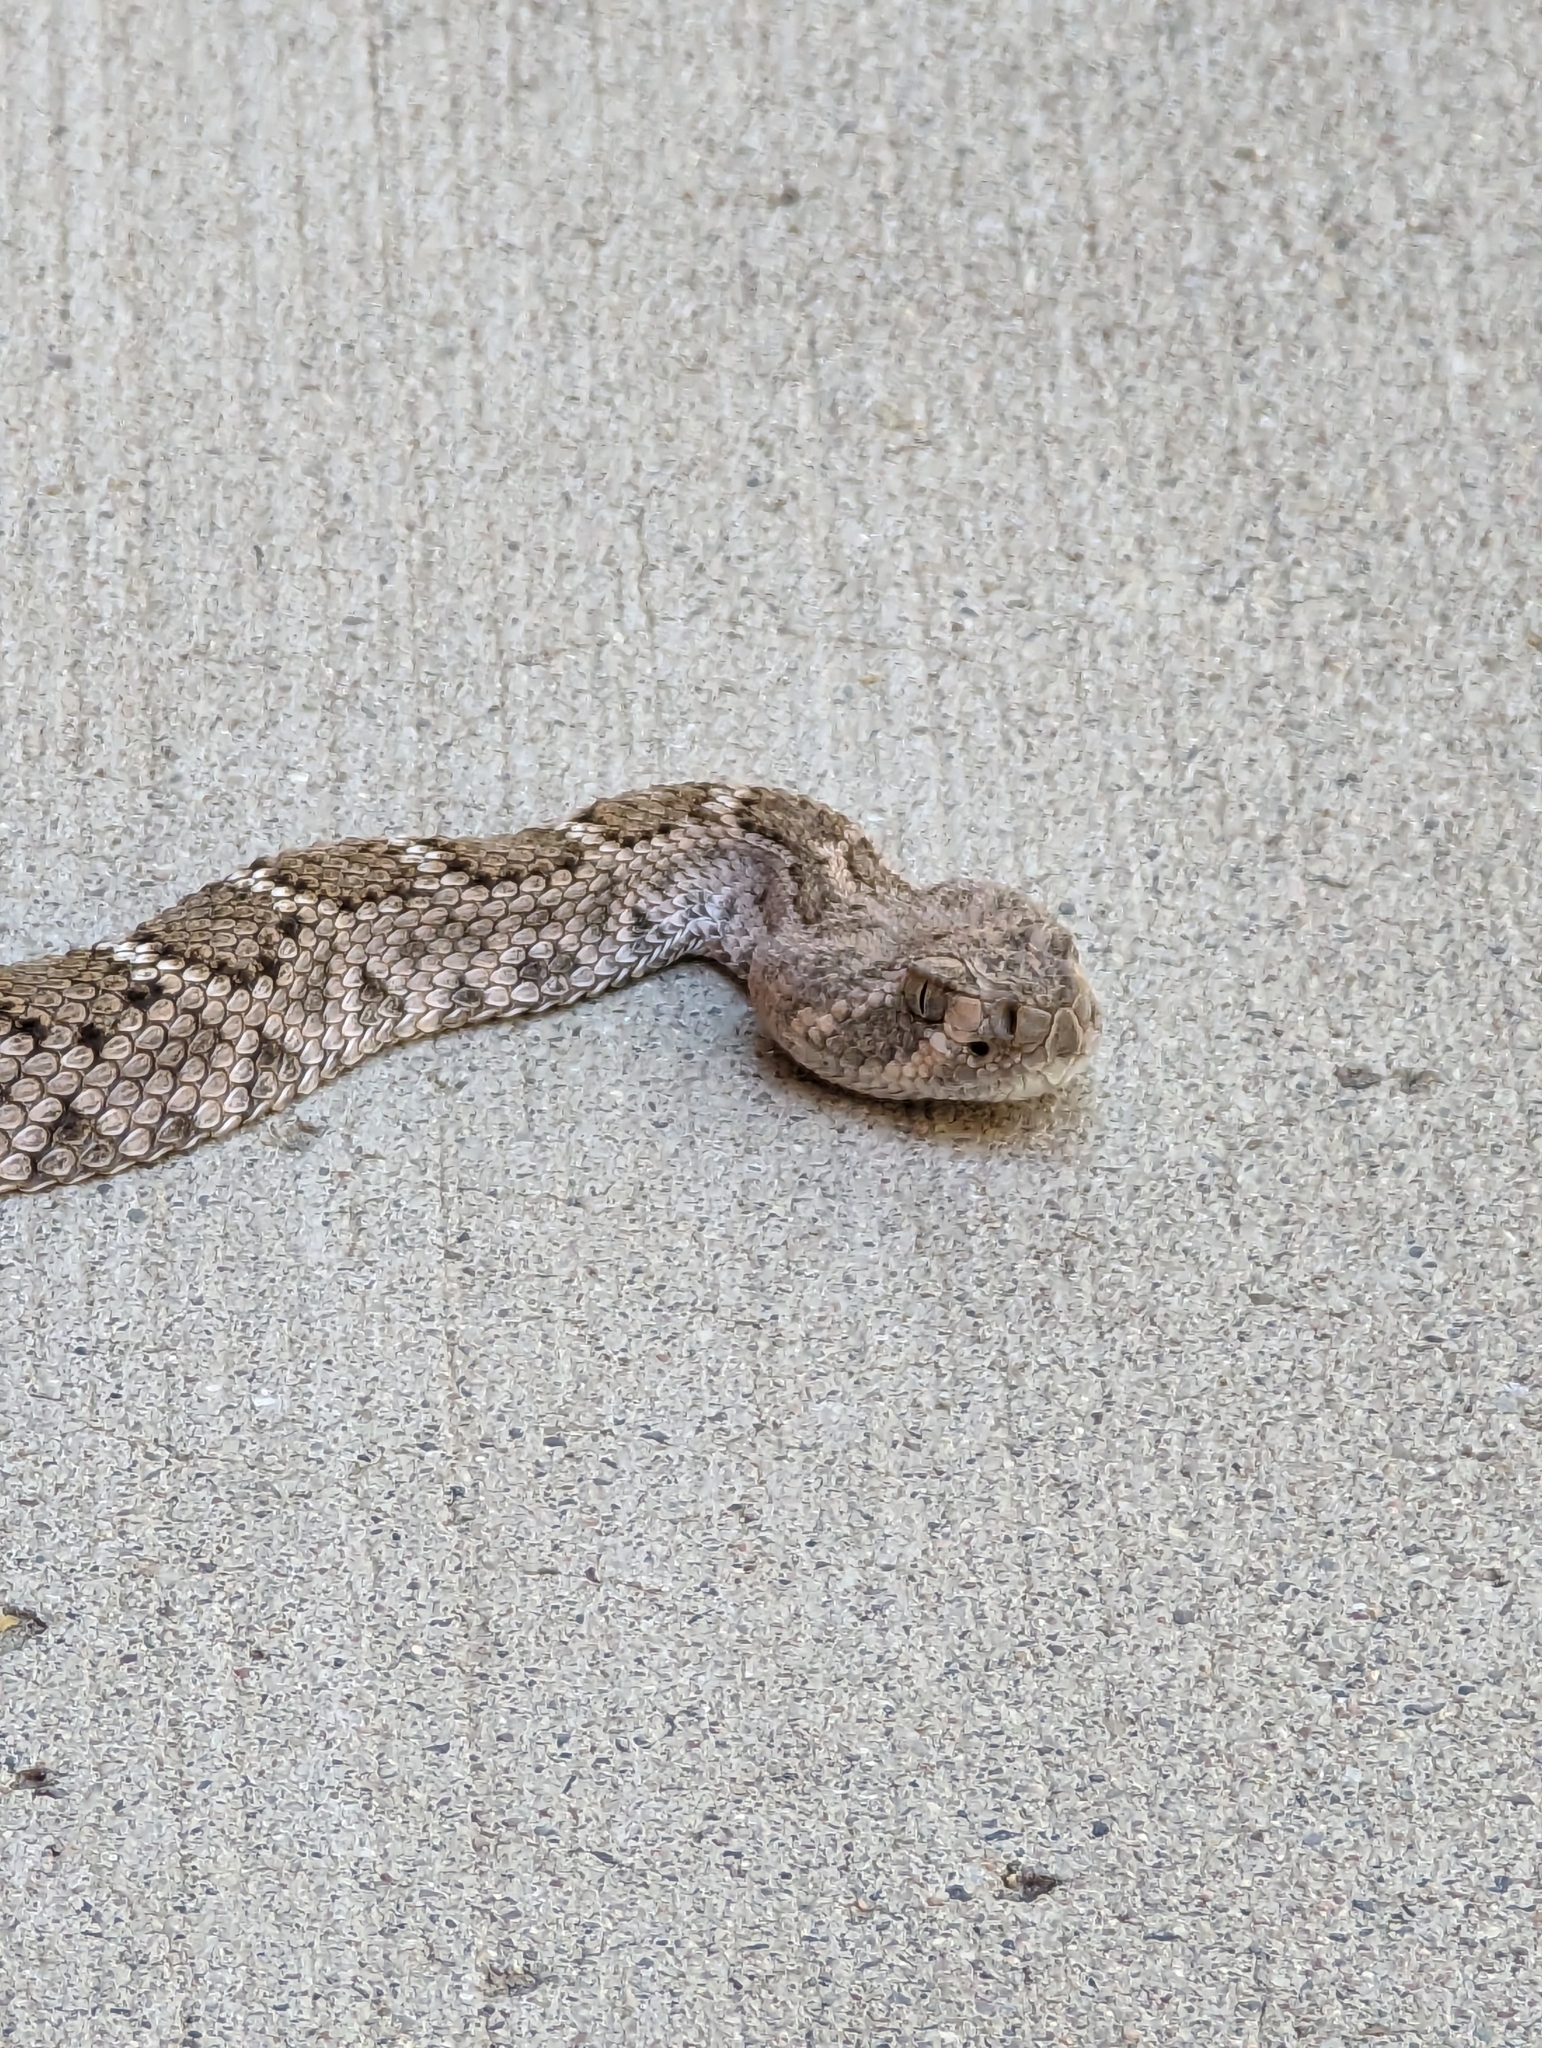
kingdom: Animalia
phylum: Chordata
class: Squamata
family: Viperidae
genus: Crotalus
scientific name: Crotalus atrox
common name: Western diamond-backed rattlesnake
